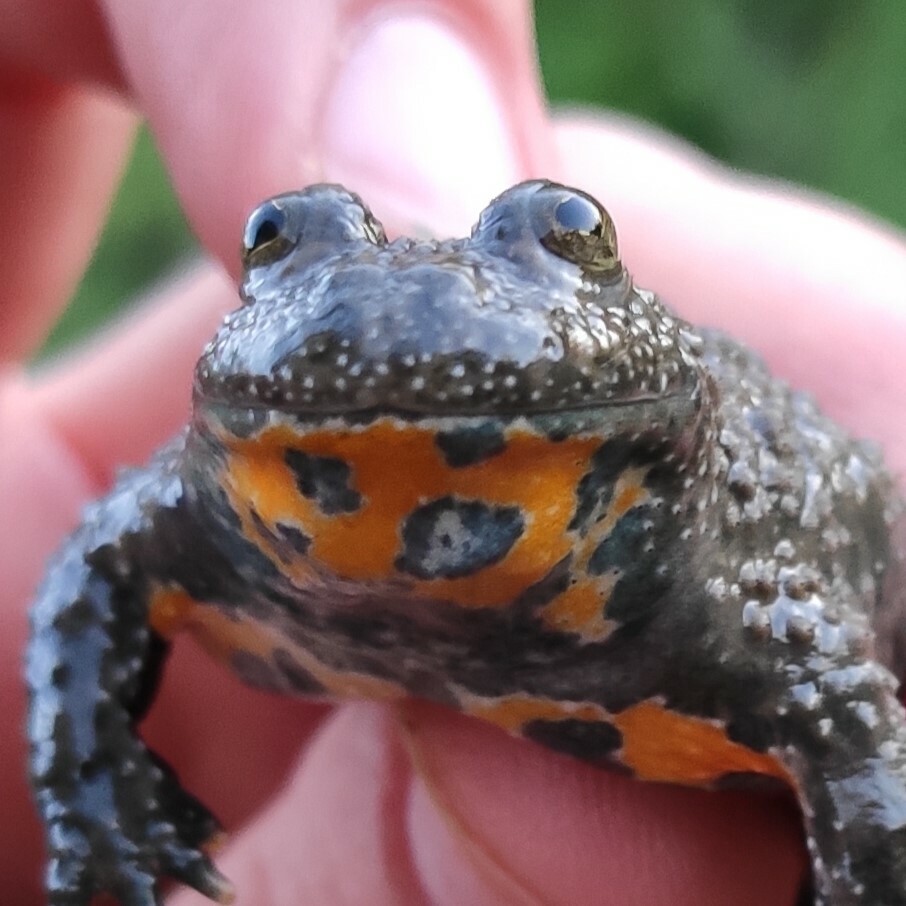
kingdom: Animalia
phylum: Chordata
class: Amphibia
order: Anura
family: Bombinatoridae
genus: Bombina
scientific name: Bombina variegata
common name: Yellow-bellied toad
